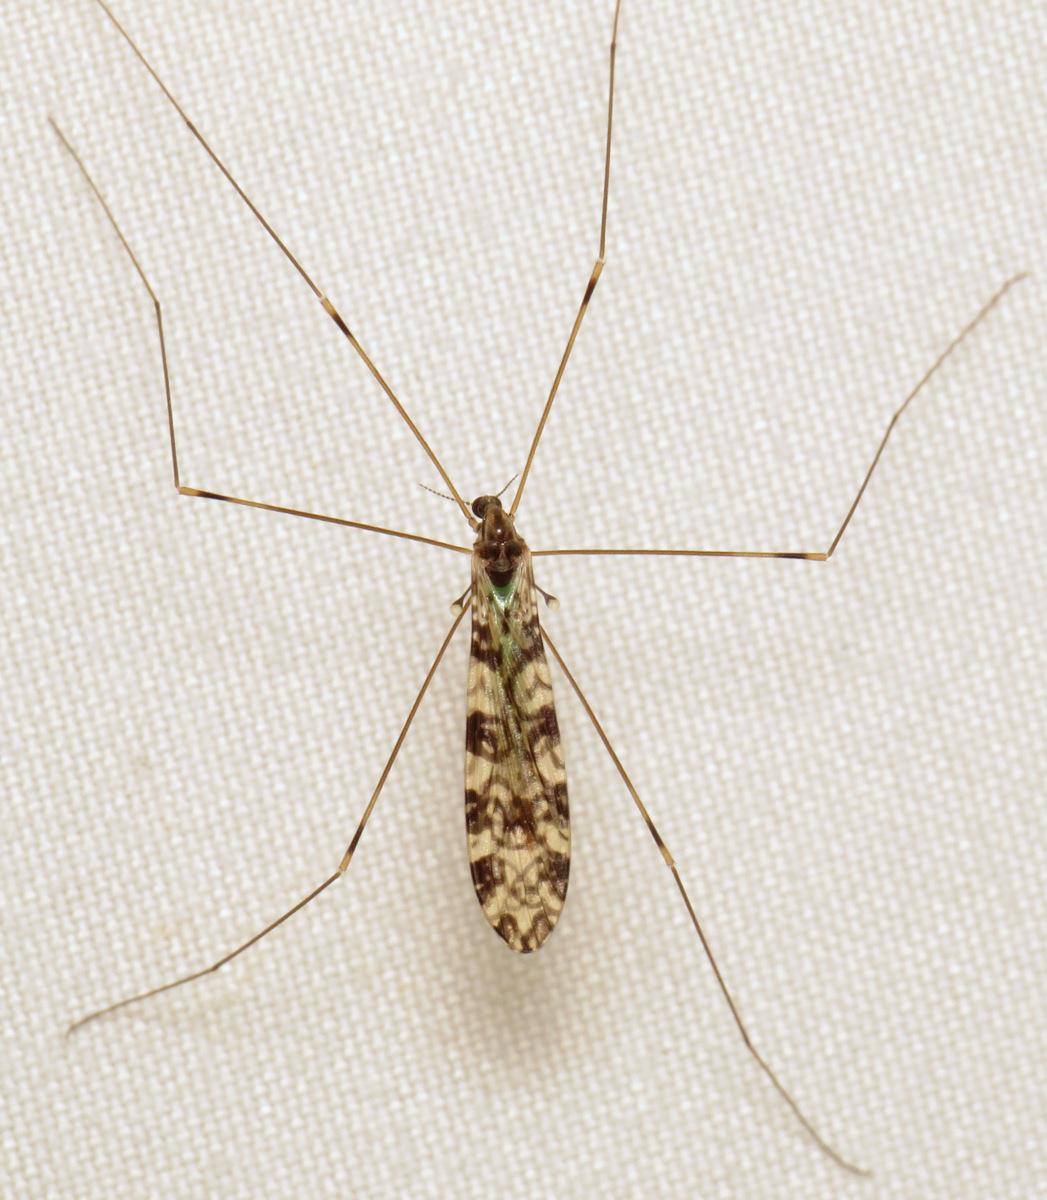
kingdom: Animalia
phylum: Arthropoda
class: Insecta
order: Diptera
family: Limoniidae
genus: Limonia
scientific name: Limonia annulata
